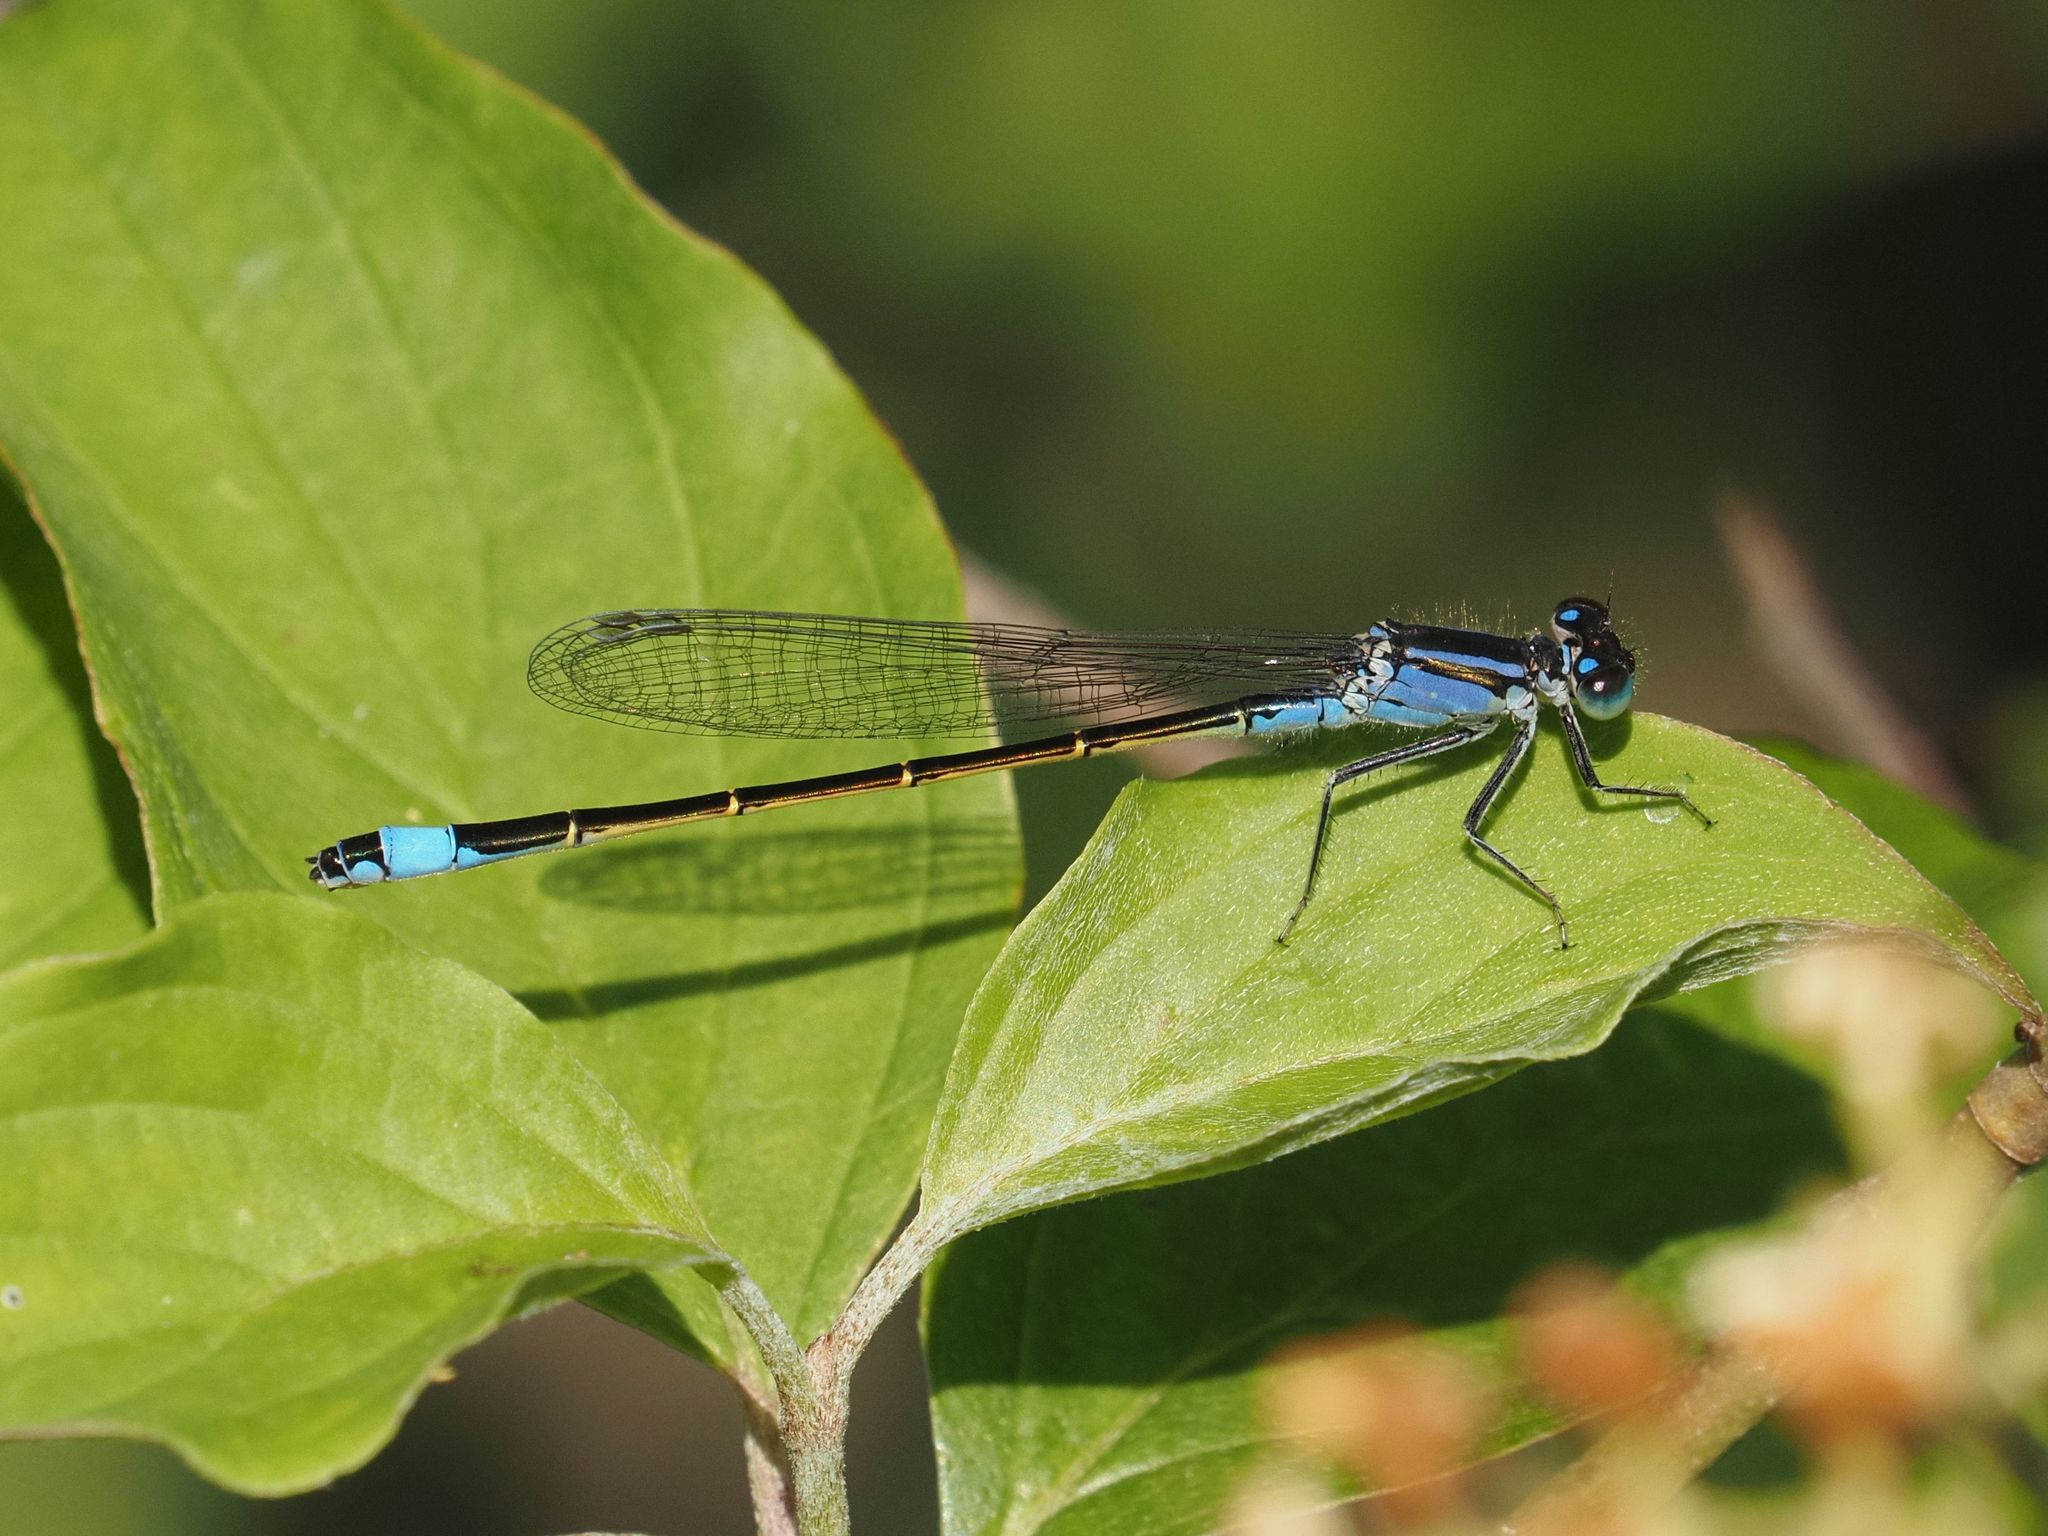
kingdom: Animalia
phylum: Arthropoda
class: Insecta
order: Odonata
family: Coenagrionidae
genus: Ischnura
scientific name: Ischnura elegans
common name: Blue-tailed damselfly
